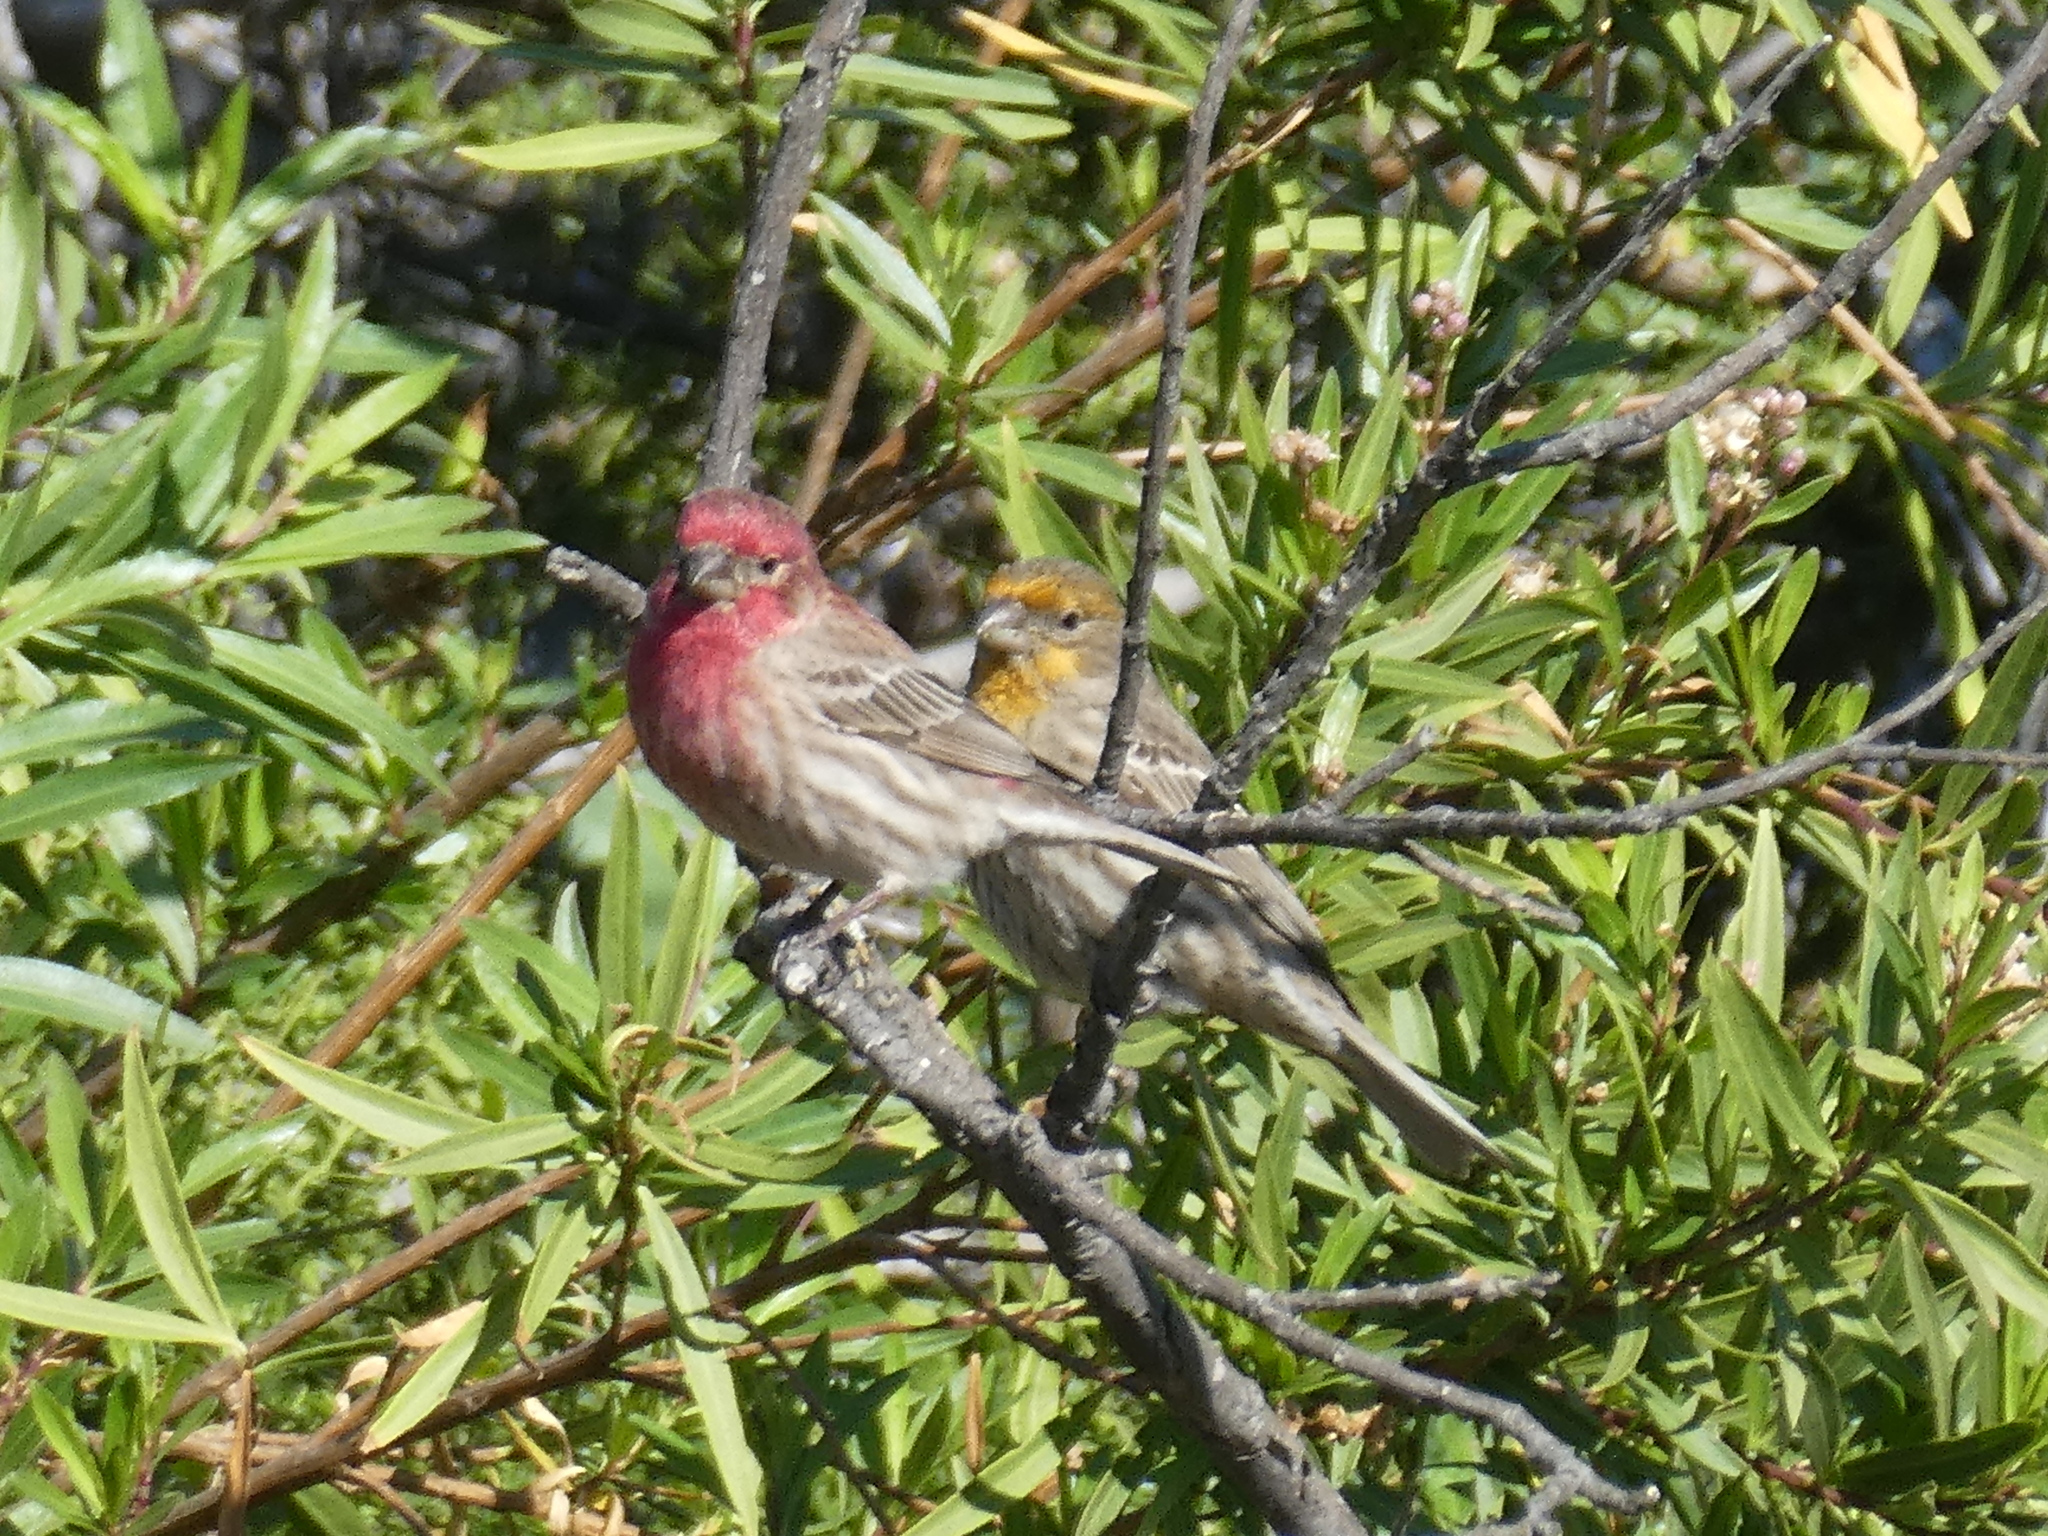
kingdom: Animalia
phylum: Chordata
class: Aves
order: Passeriformes
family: Fringillidae
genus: Haemorhous
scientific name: Haemorhous mexicanus
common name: House finch
